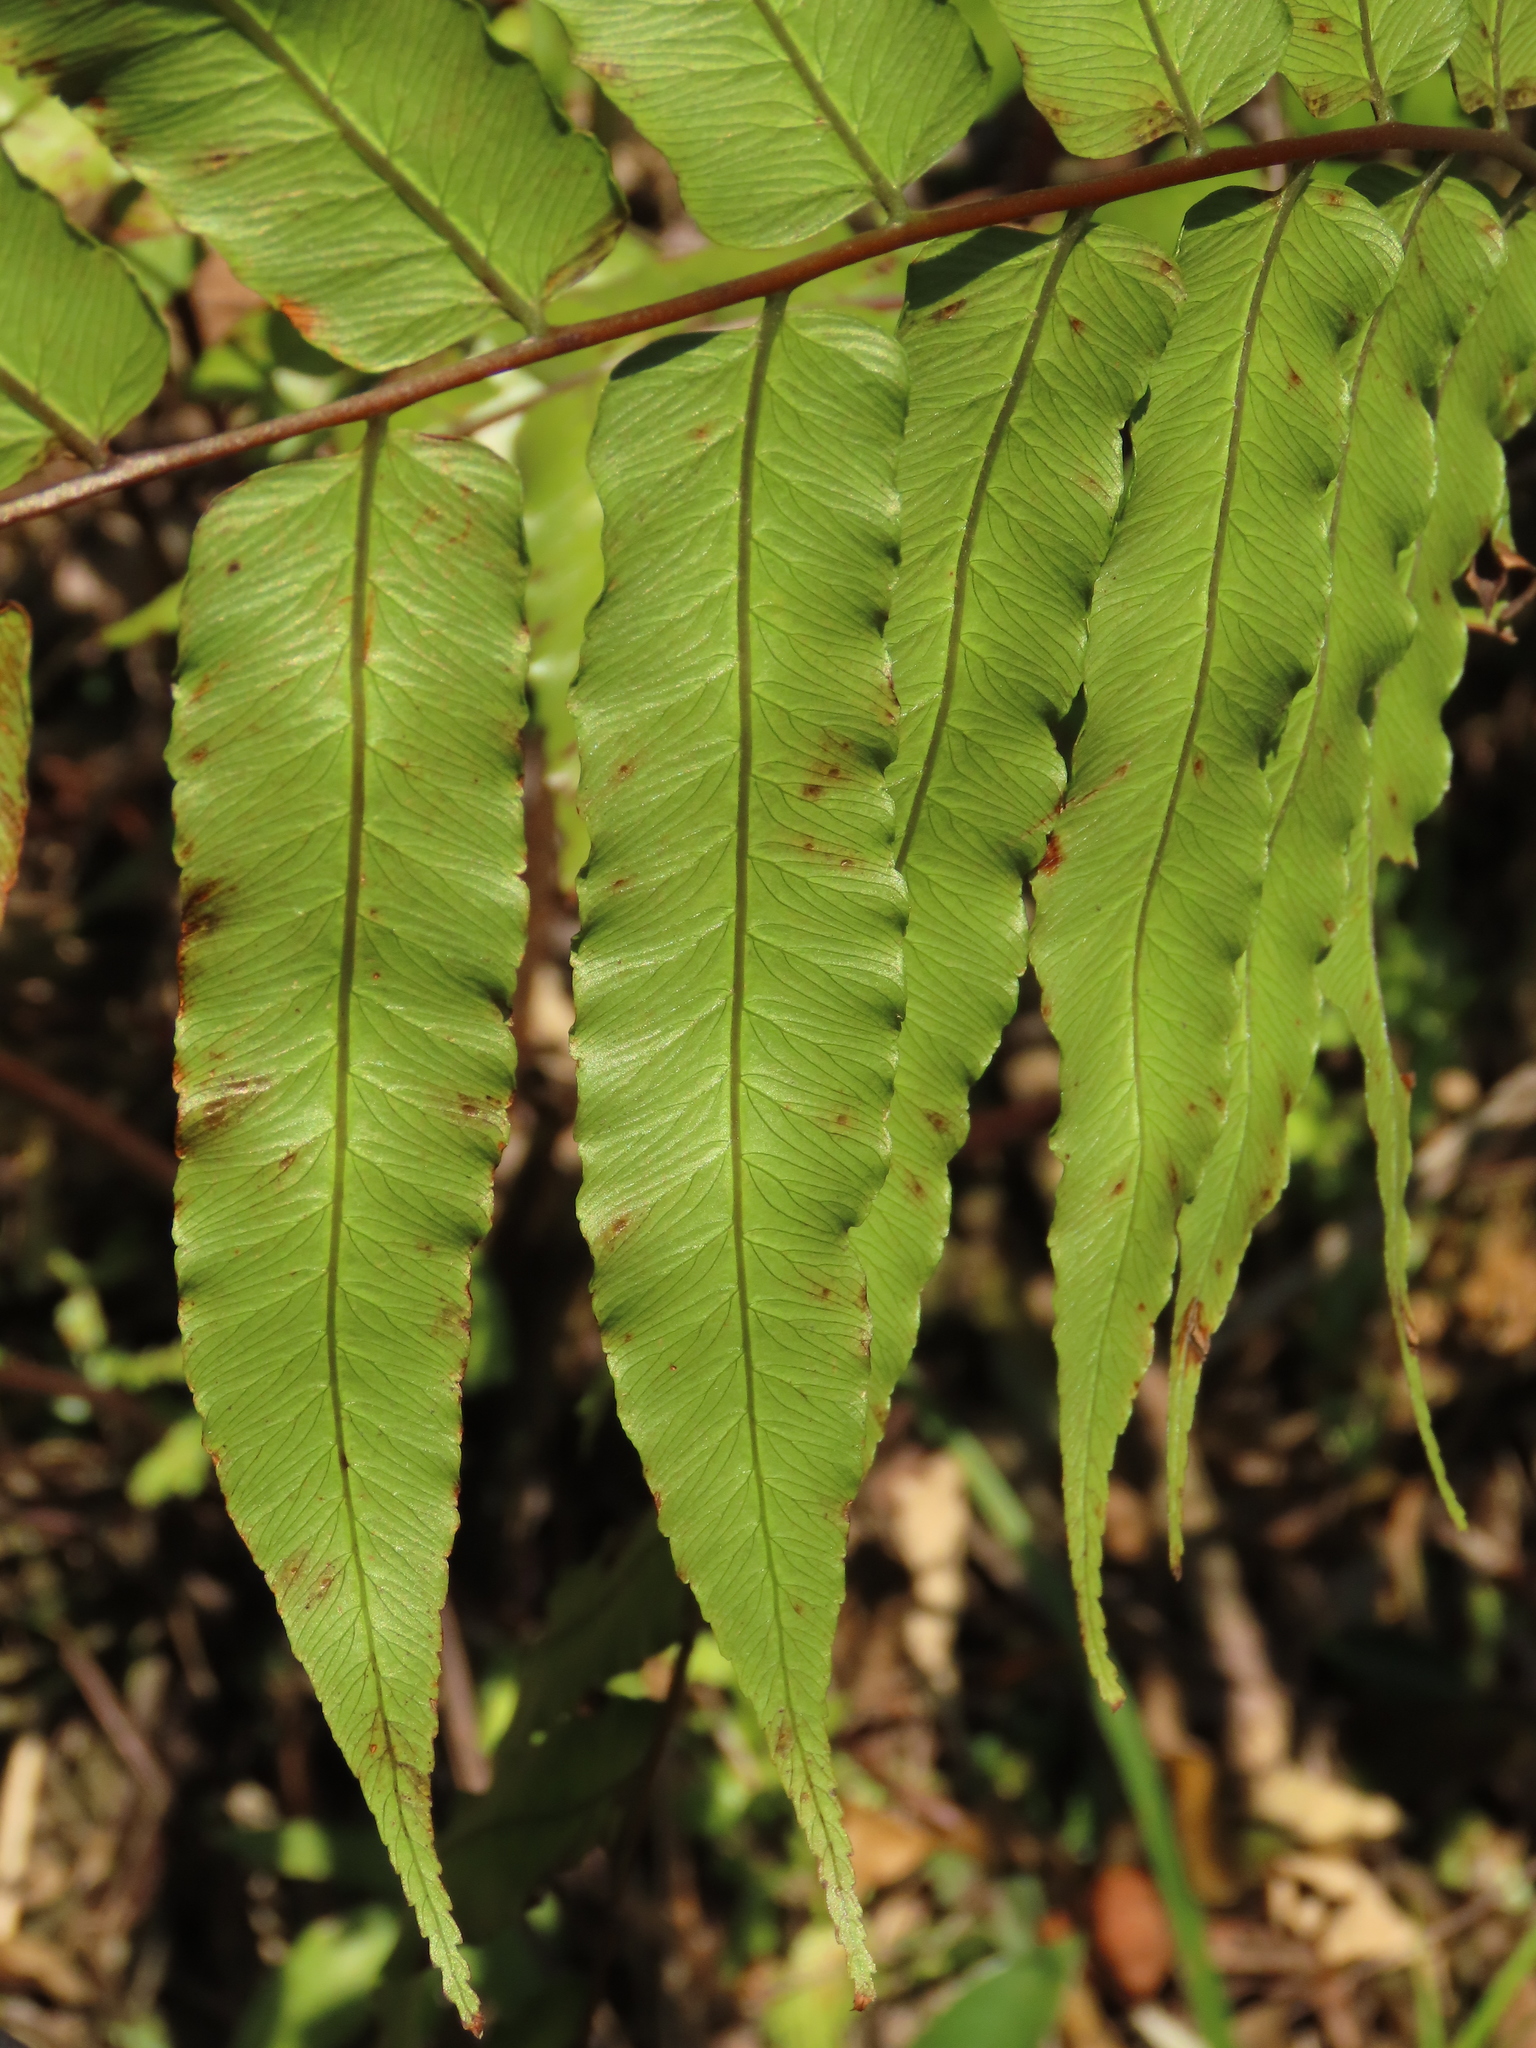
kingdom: Plantae
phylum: Tracheophyta
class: Polypodiopsida
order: Cyatheales
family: Cyatheaceae
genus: Gymnosphaera
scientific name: Gymnosphaera podophylla
